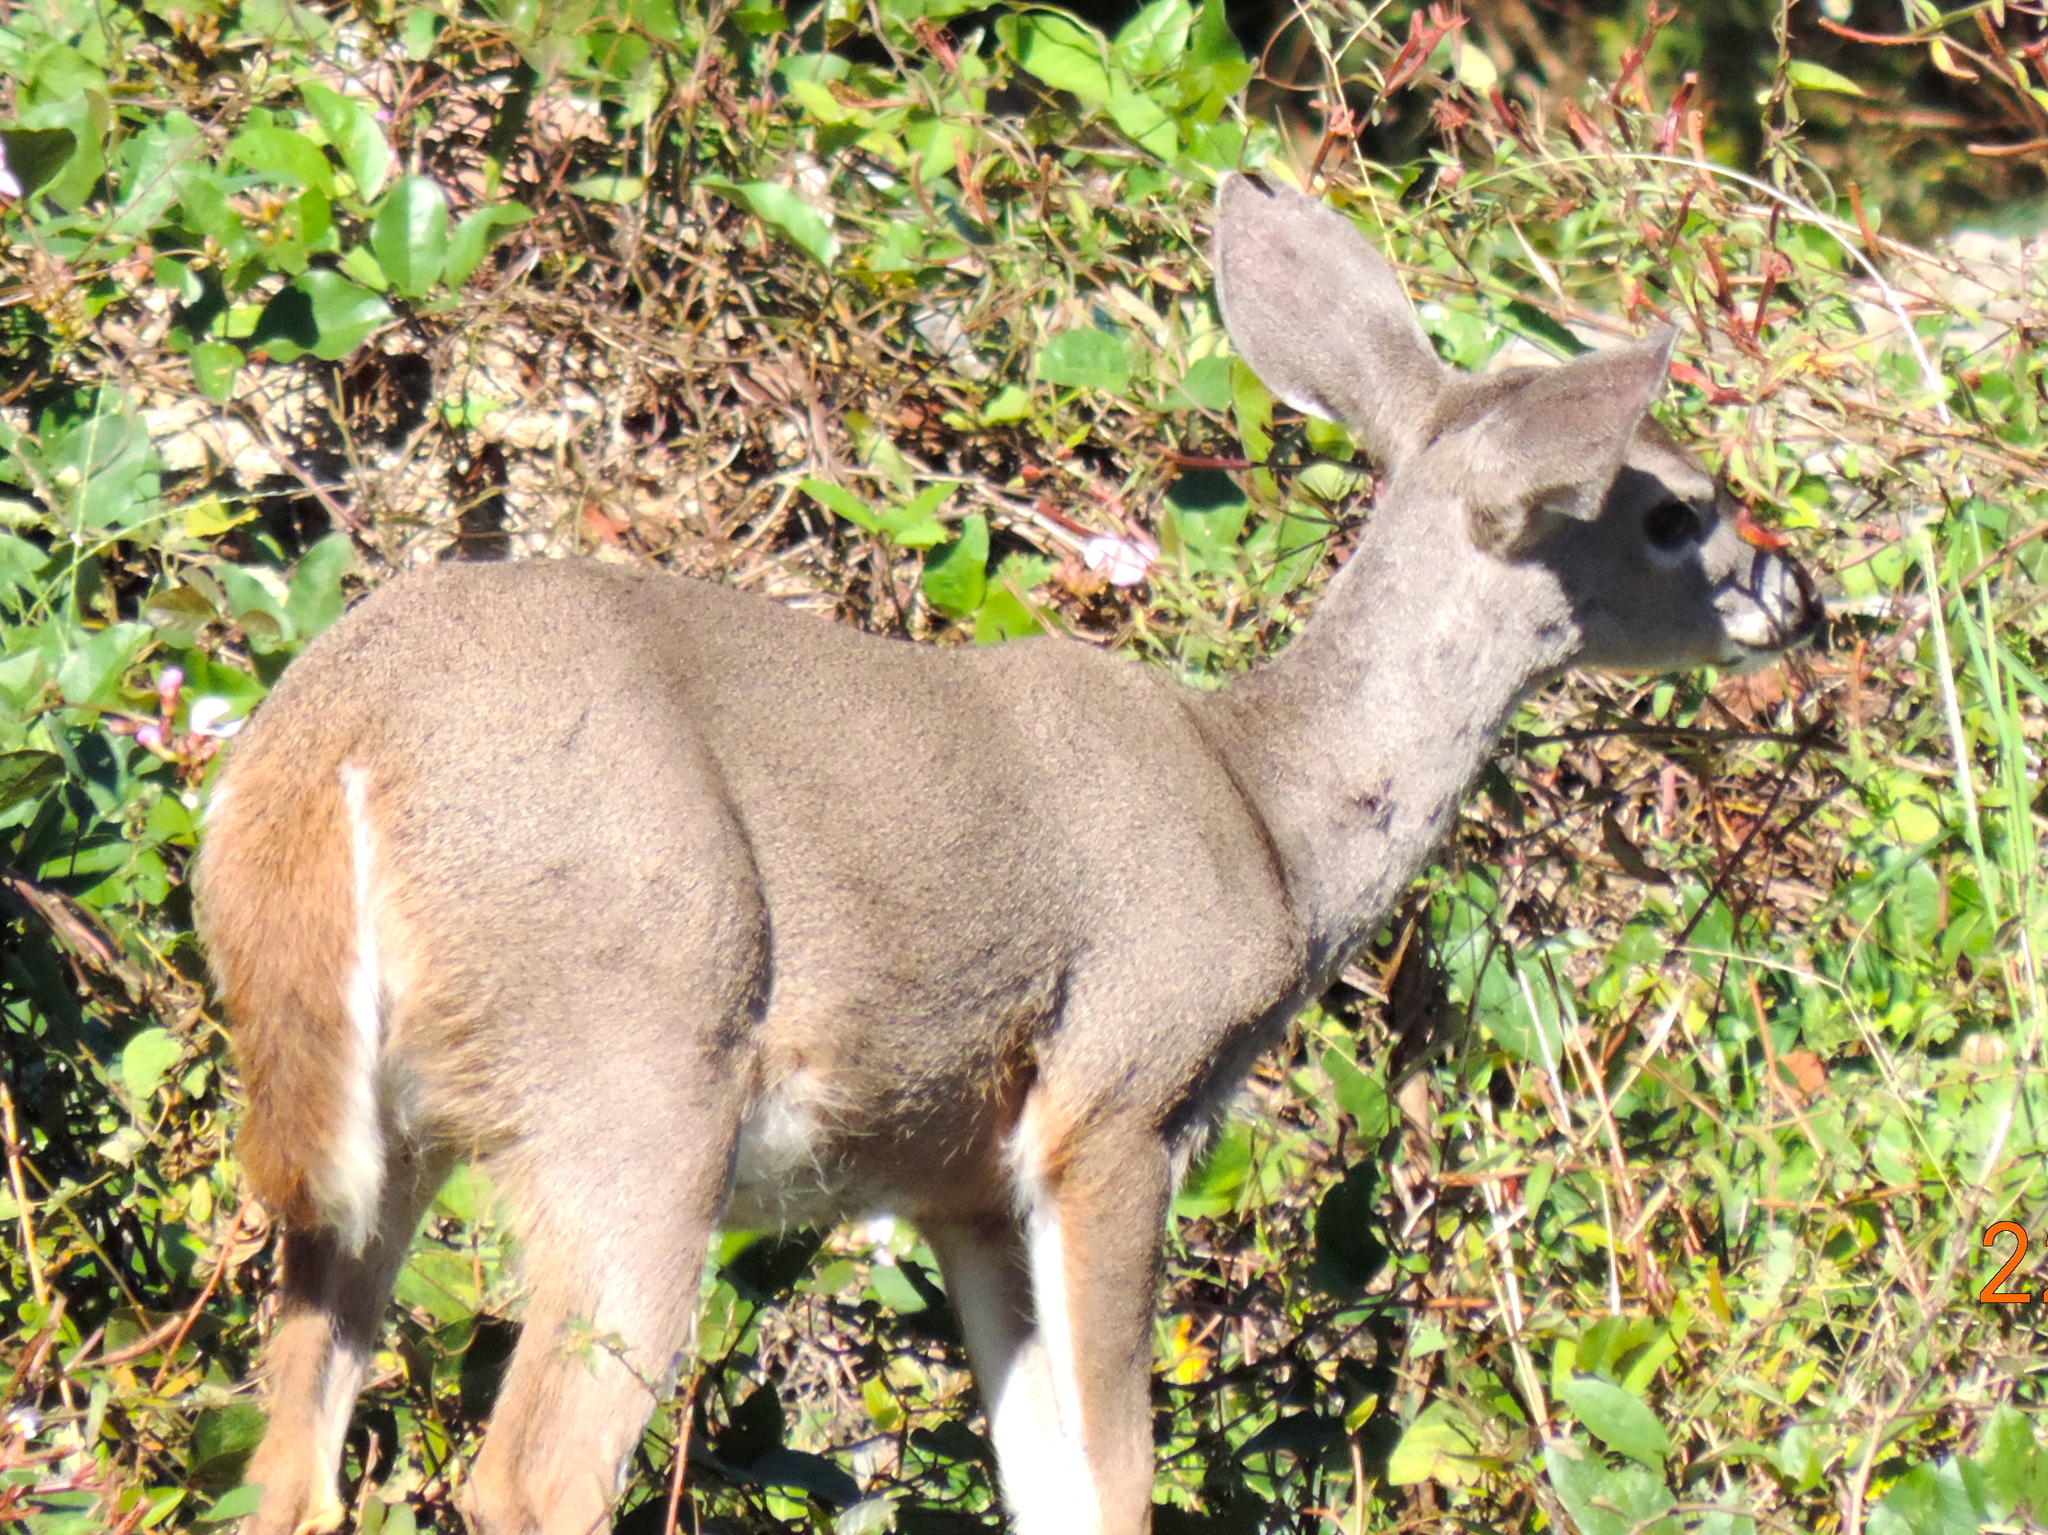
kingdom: Animalia
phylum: Chordata
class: Mammalia
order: Artiodactyla
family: Cervidae
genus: Odocoileus
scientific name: Odocoileus virginianus
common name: White-tailed deer
